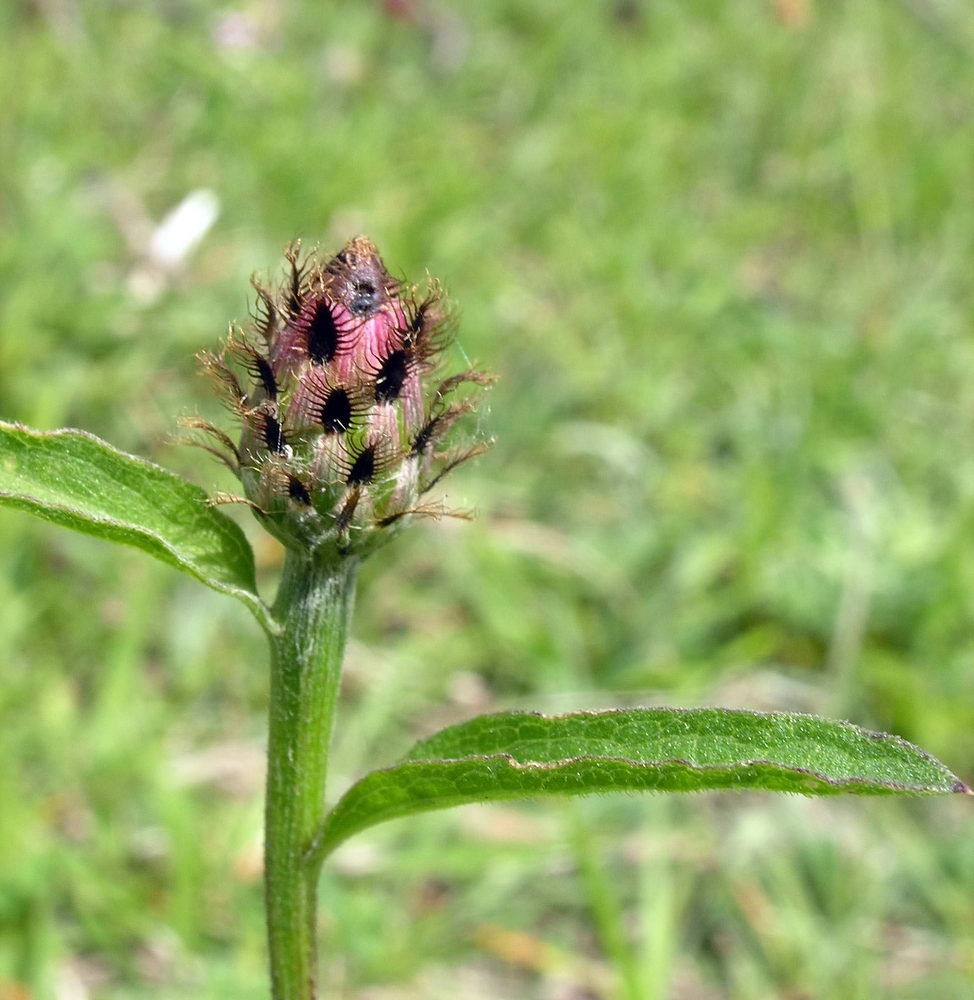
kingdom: Plantae
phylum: Tracheophyta
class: Magnoliopsida
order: Asterales
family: Asteraceae
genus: Centaurea
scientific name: Centaurea decipiens
